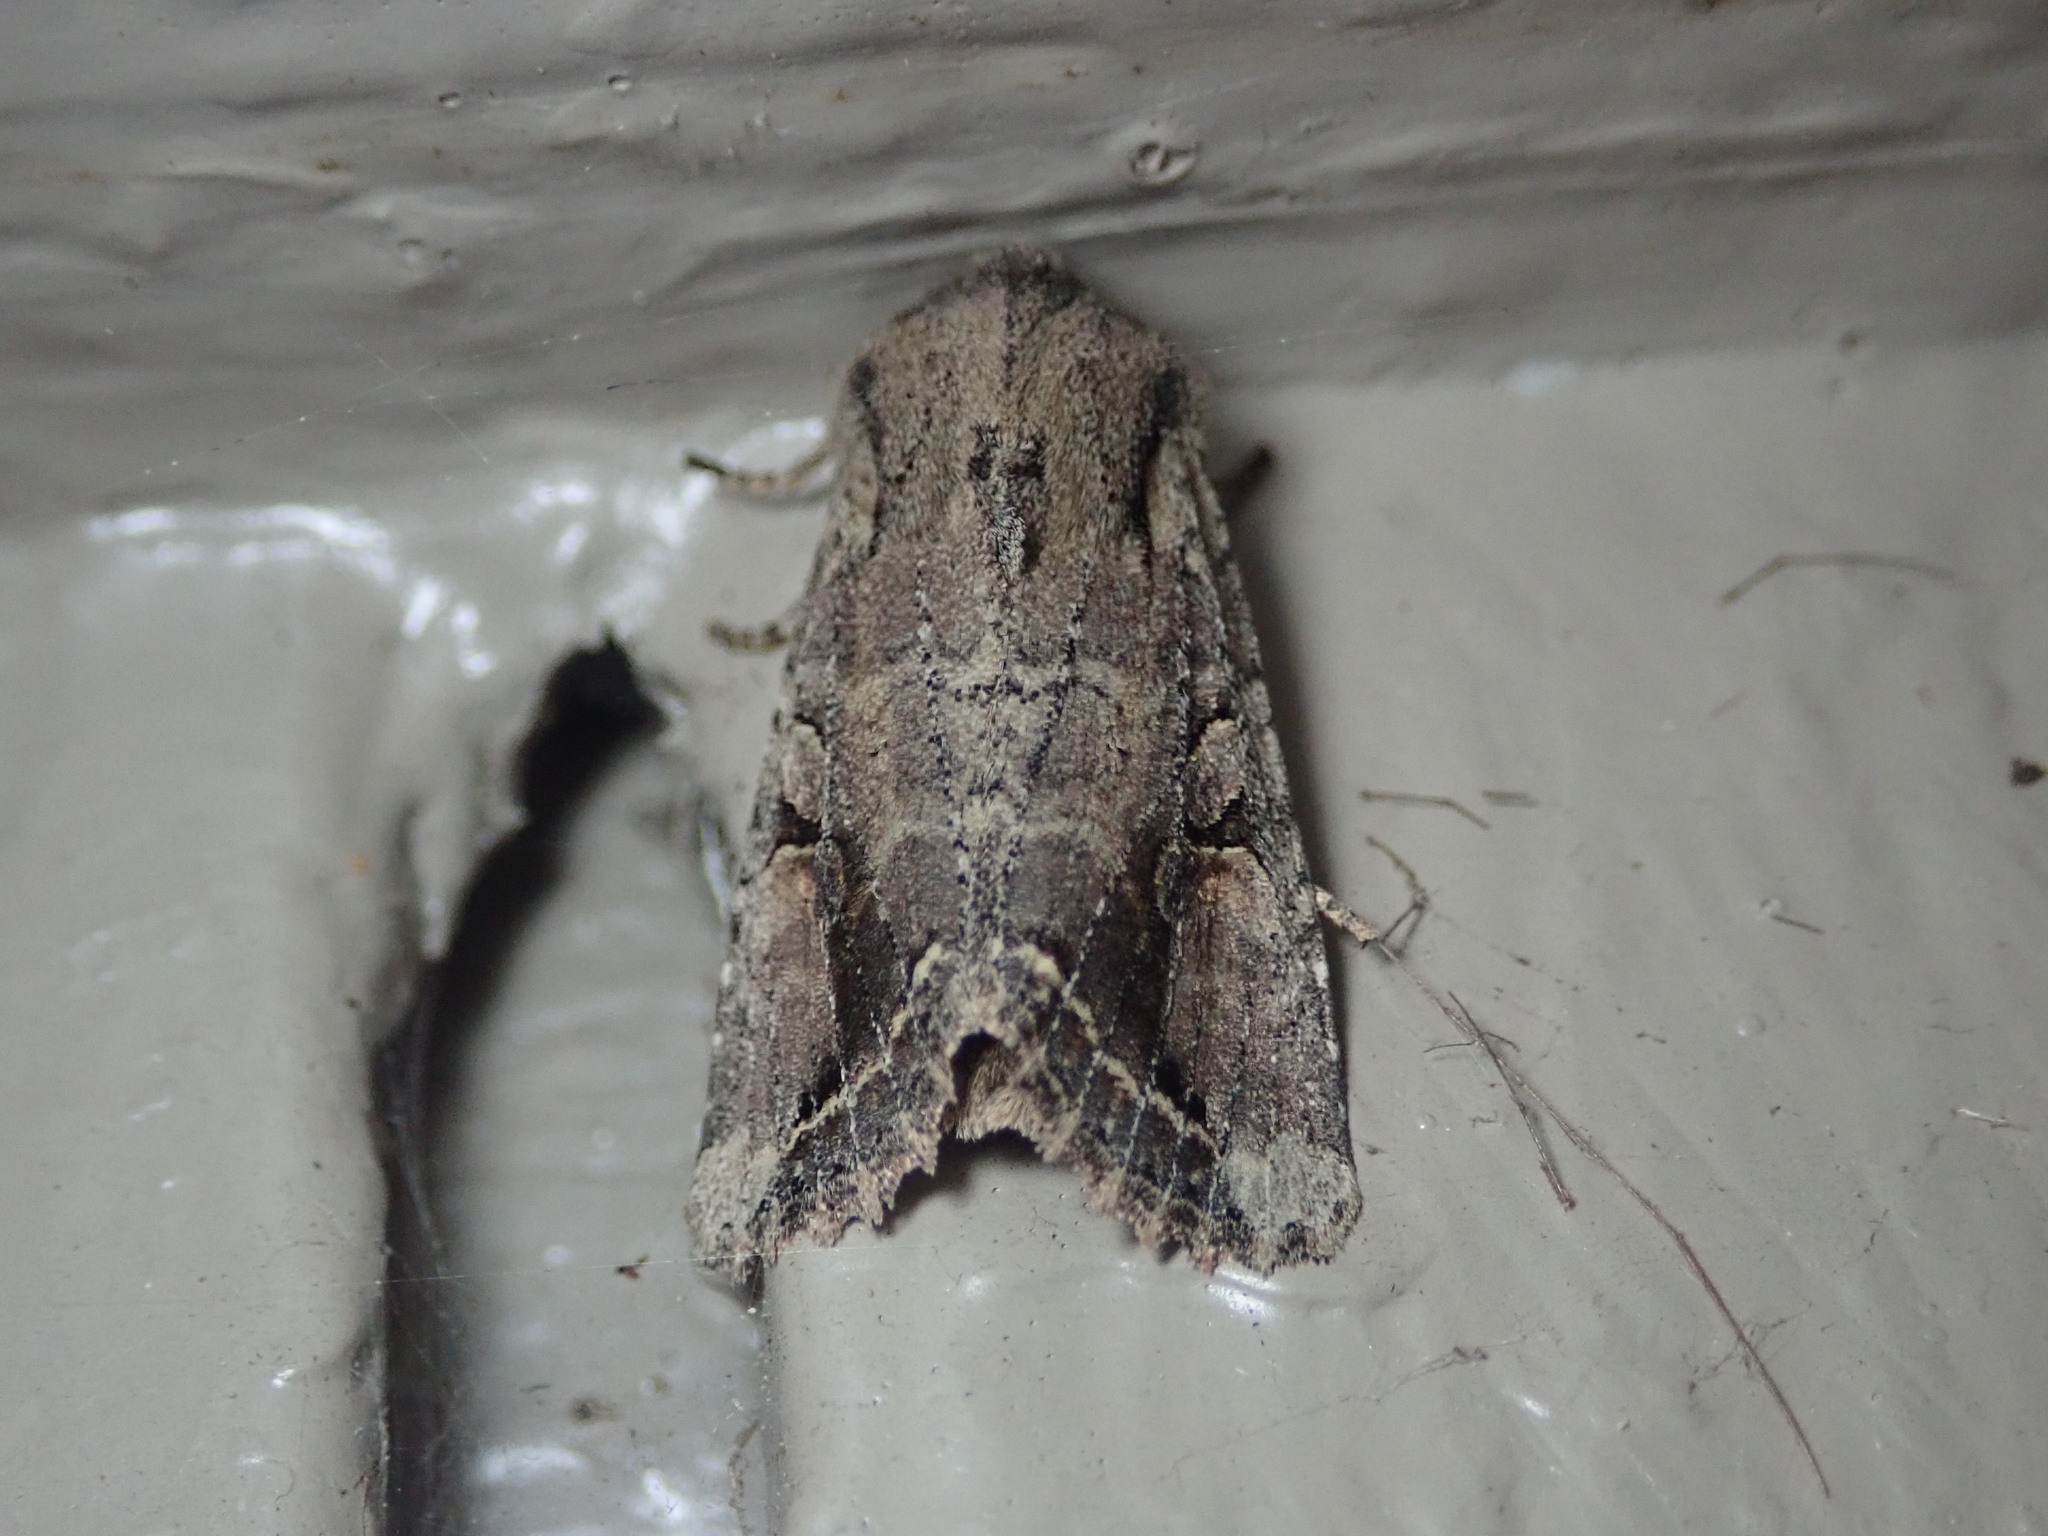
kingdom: Animalia
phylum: Arthropoda
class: Insecta
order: Lepidoptera
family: Noctuidae
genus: Egira
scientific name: Egira rubrica
